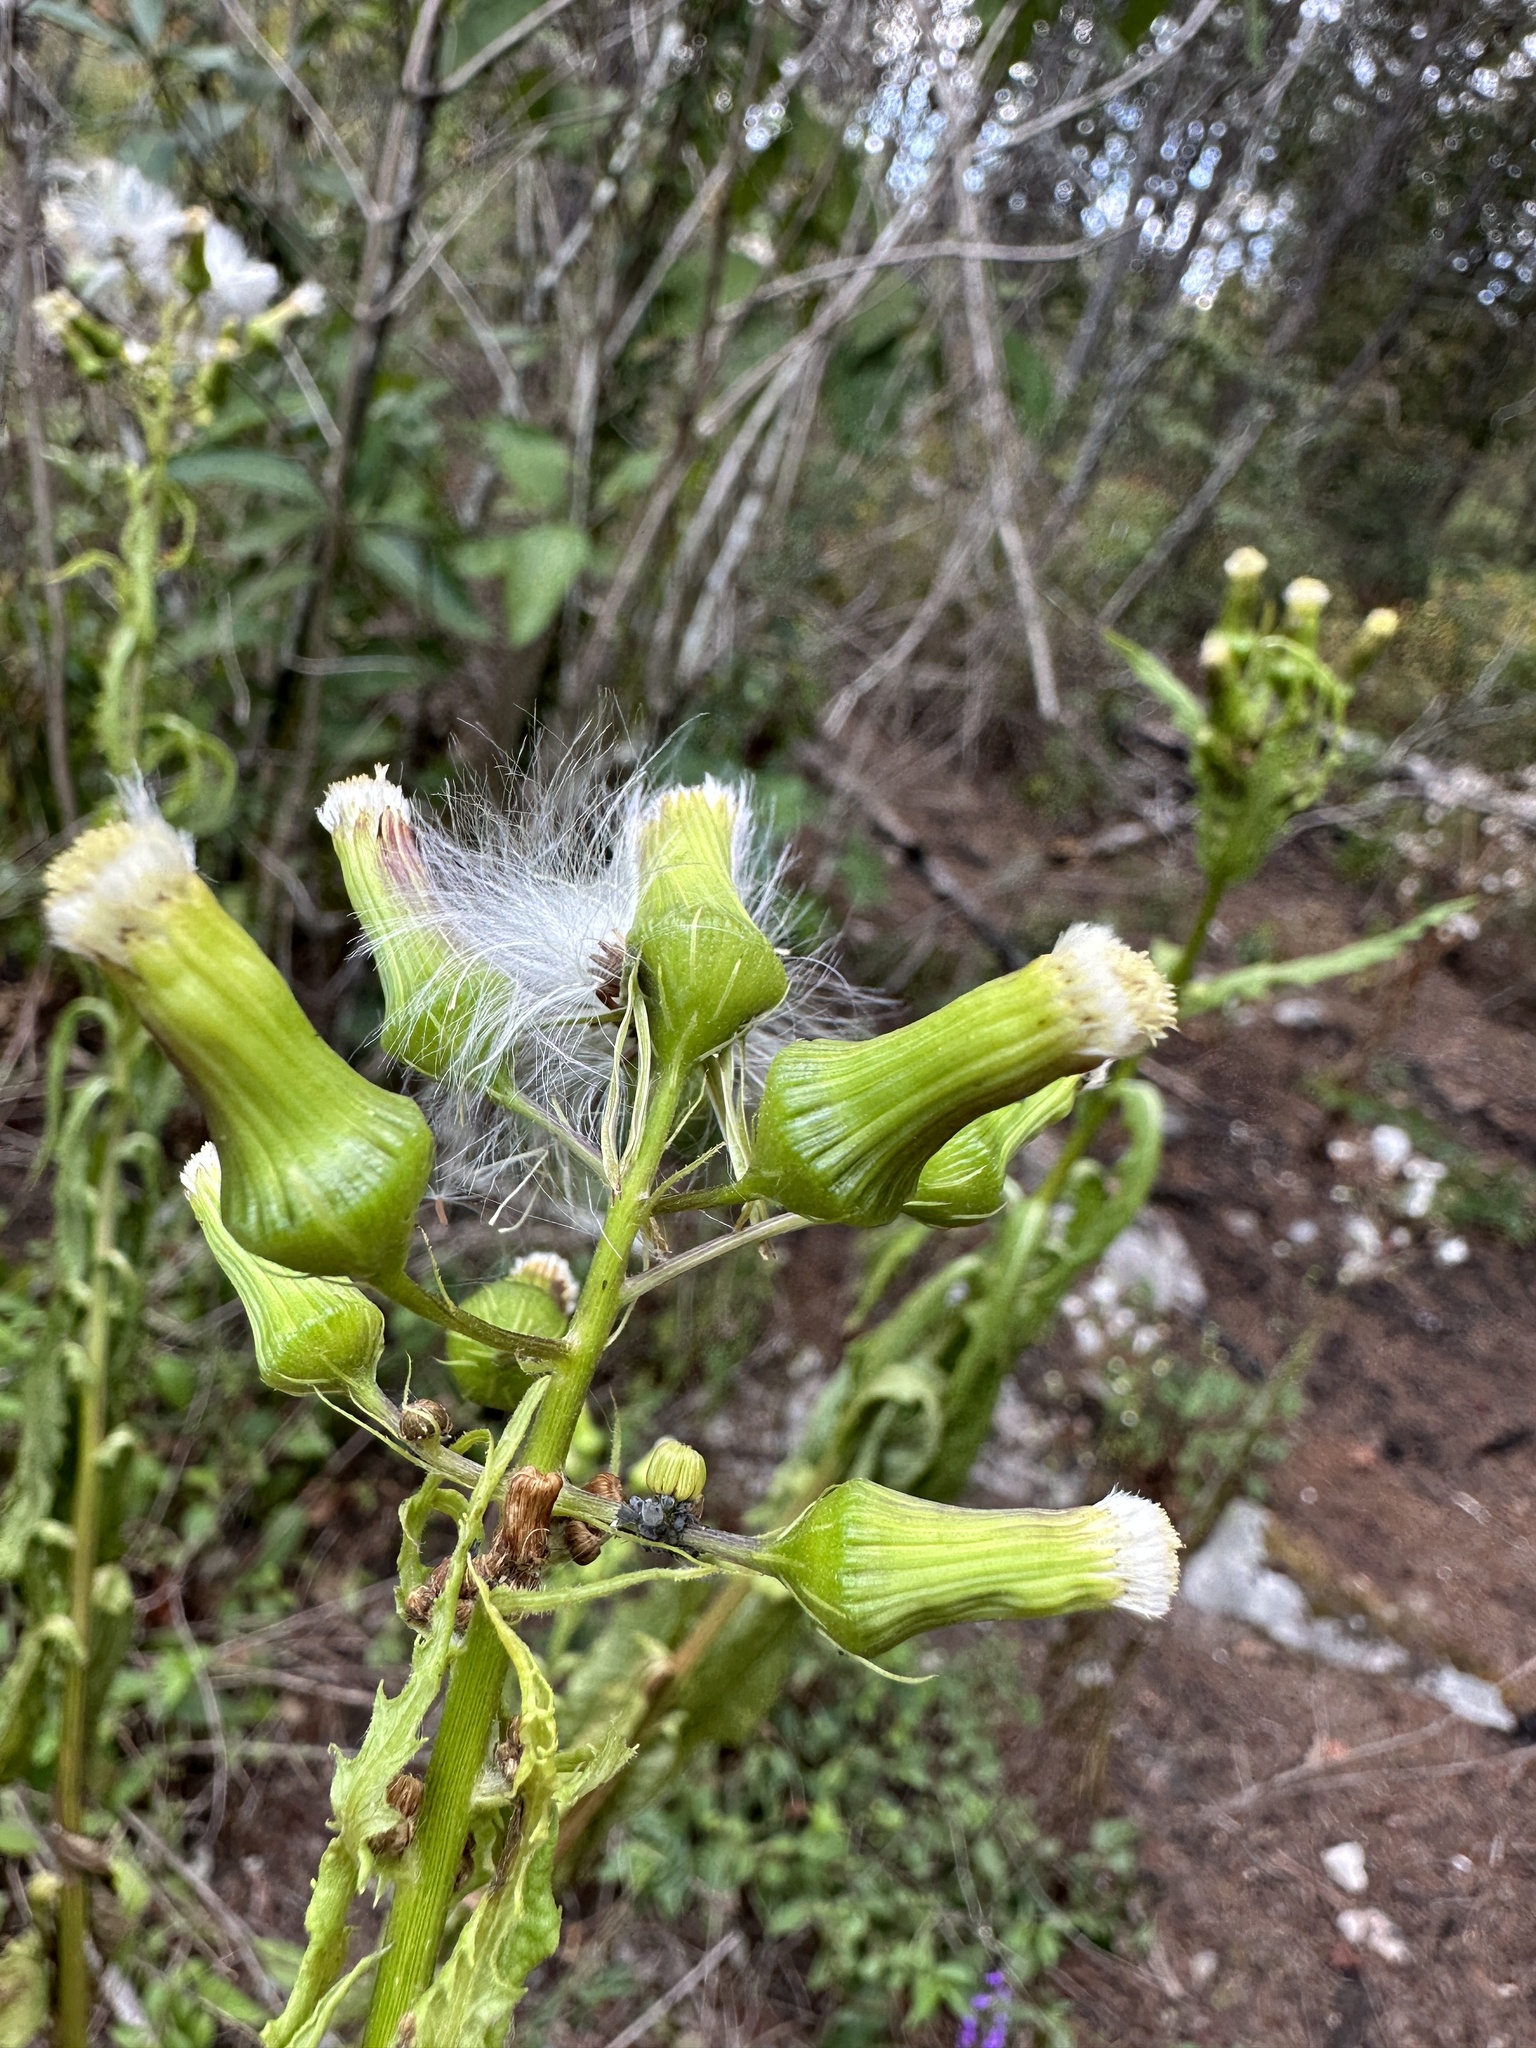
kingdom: Plantae
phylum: Tracheophyta
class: Magnoliopsida
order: Asterales
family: Asteraceae
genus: Erechtites
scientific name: Erechtites hieraciifolius
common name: American burnweed
